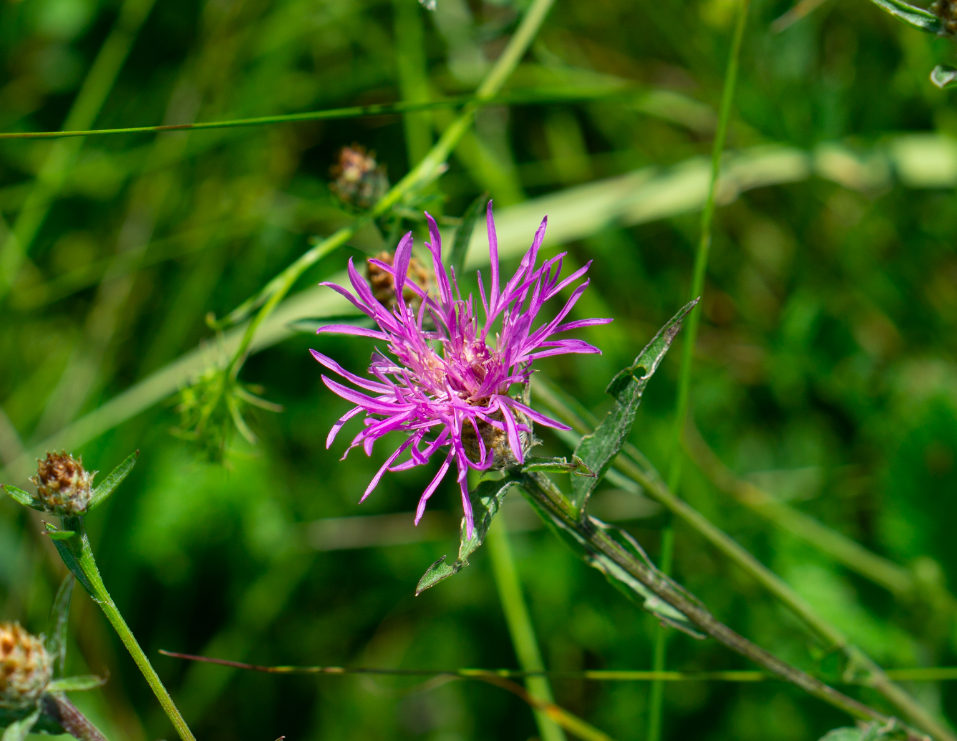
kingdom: Plantae
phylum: Tracheophyta
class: Magnoliopsida
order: Asterales
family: Asteraceae
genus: Centaurea
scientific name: Centaurea jacea
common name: Brown knapweed
